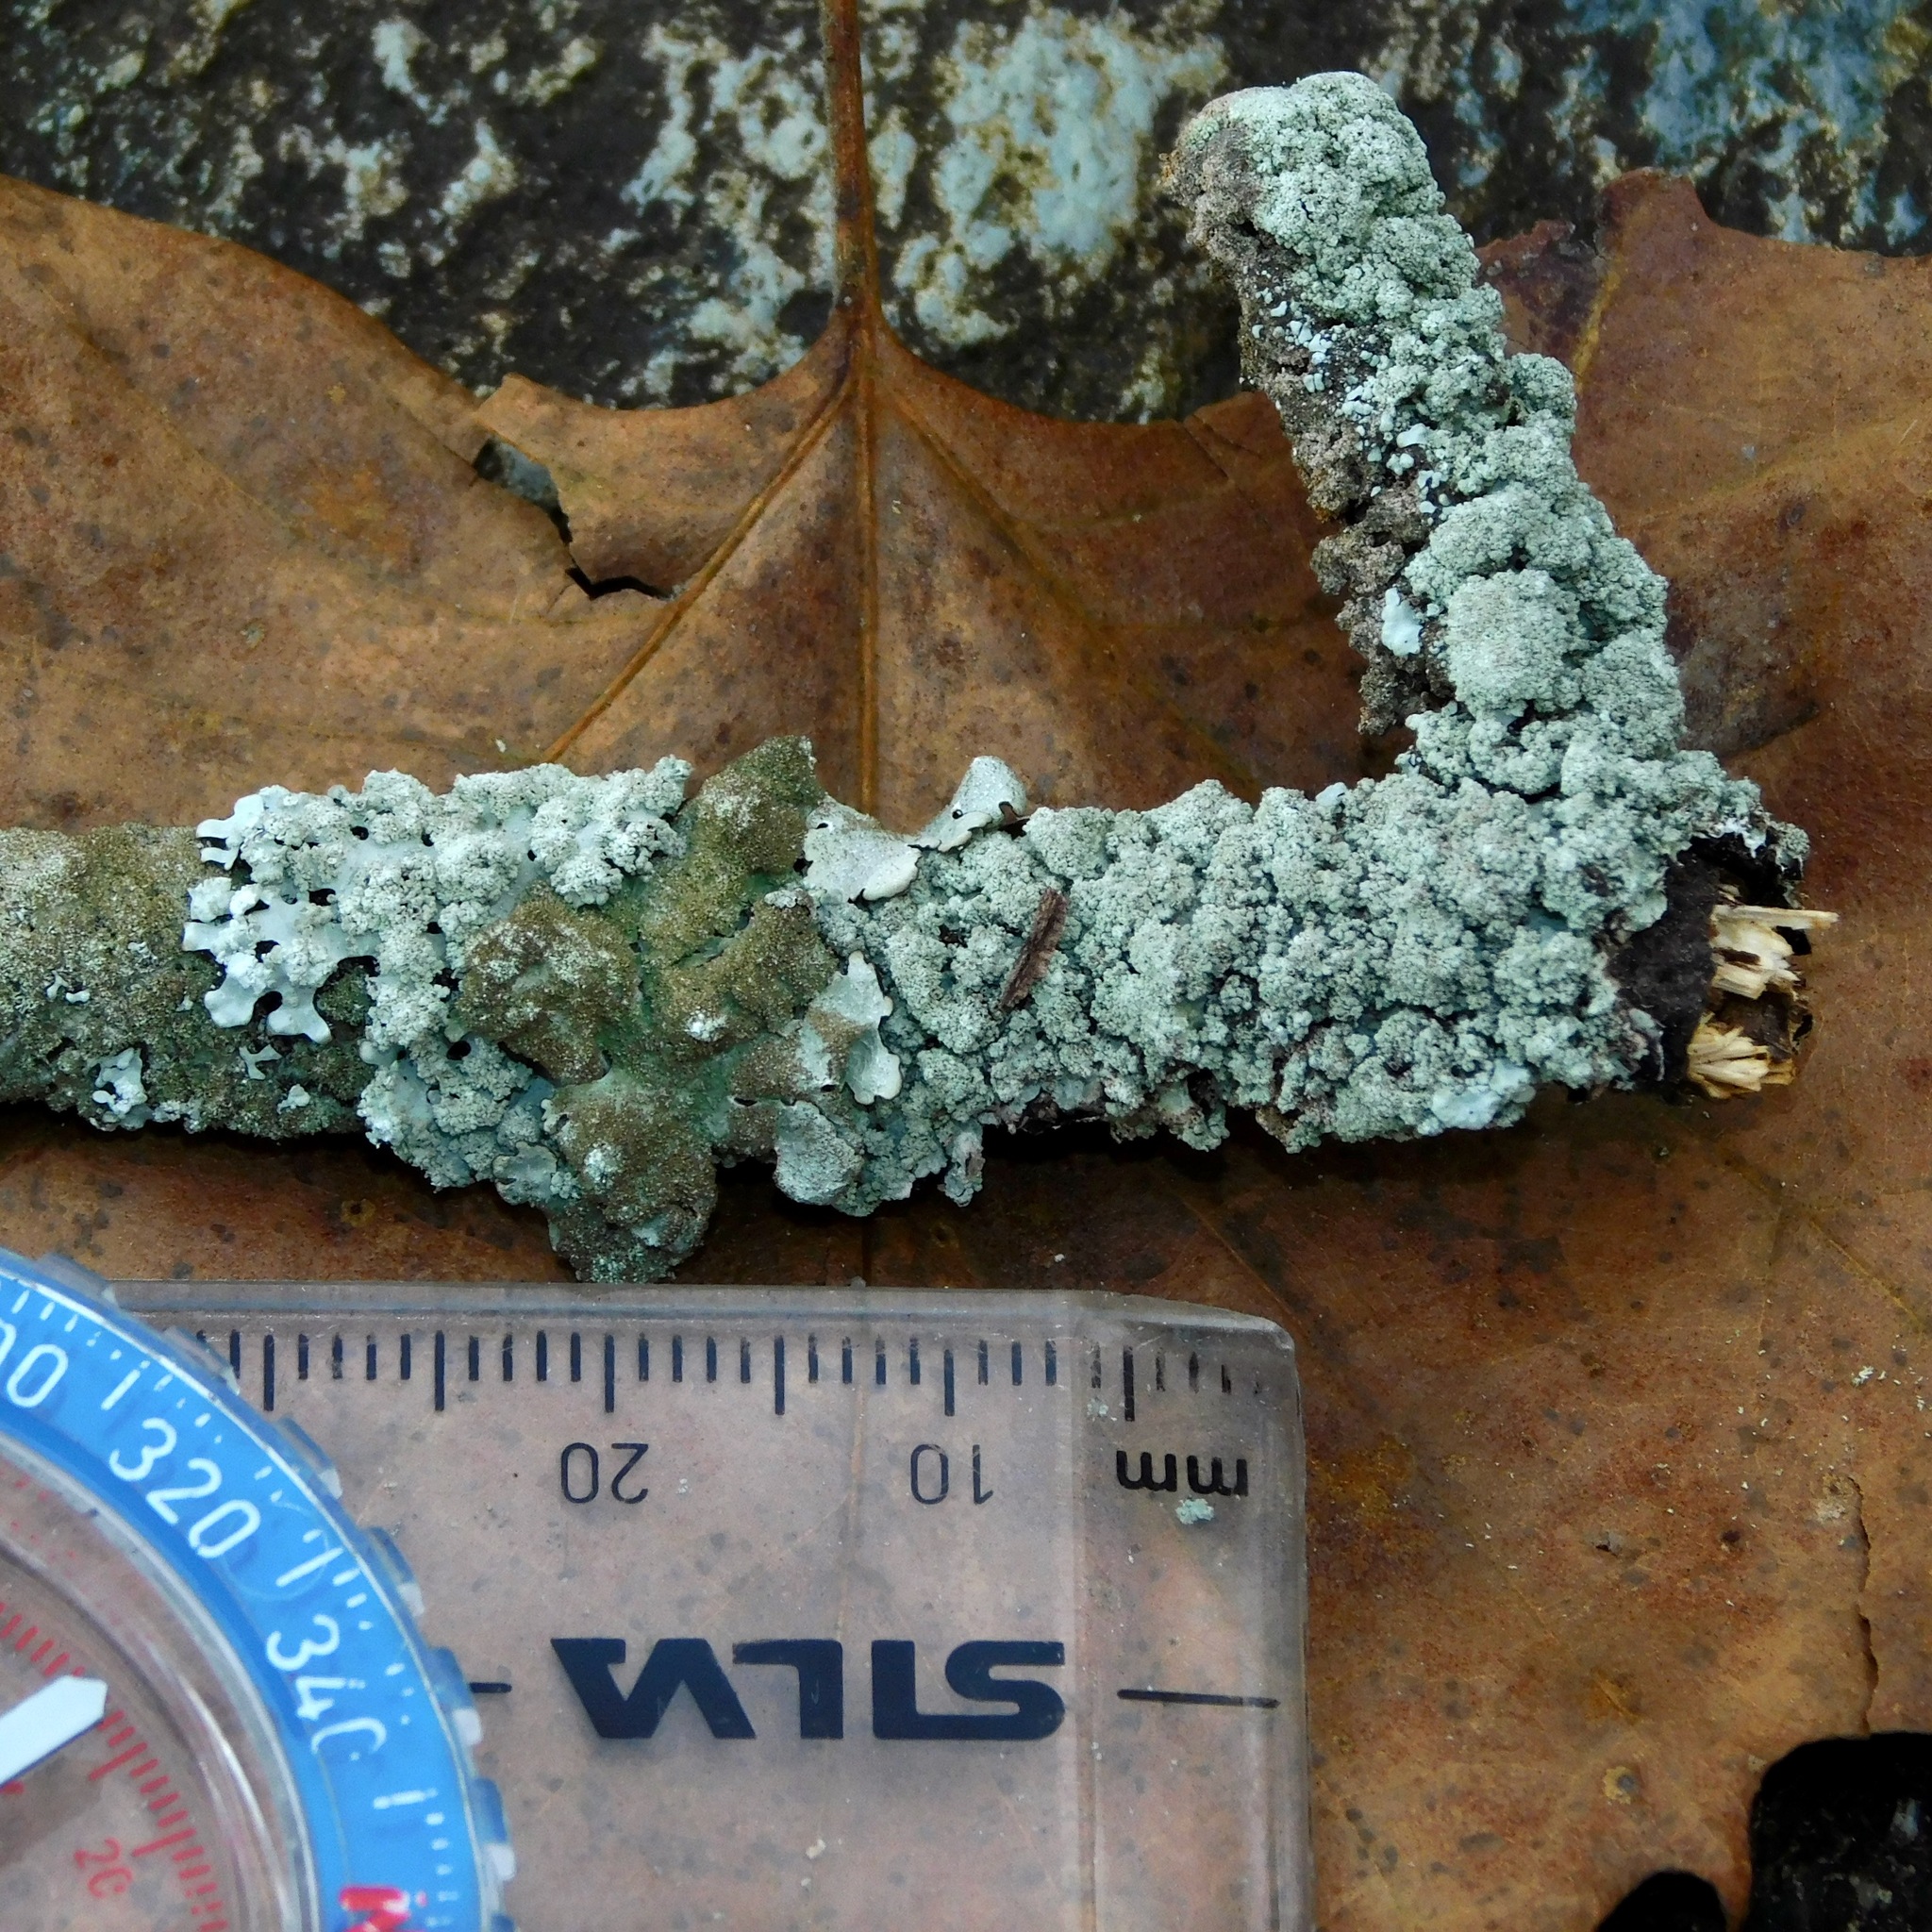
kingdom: Fungi
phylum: Ascomycota
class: Lecanoromycetes
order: Lecanorales
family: Parmeliaceae
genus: Hypotrachyna
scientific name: Hypotrachyna croceopustulata
